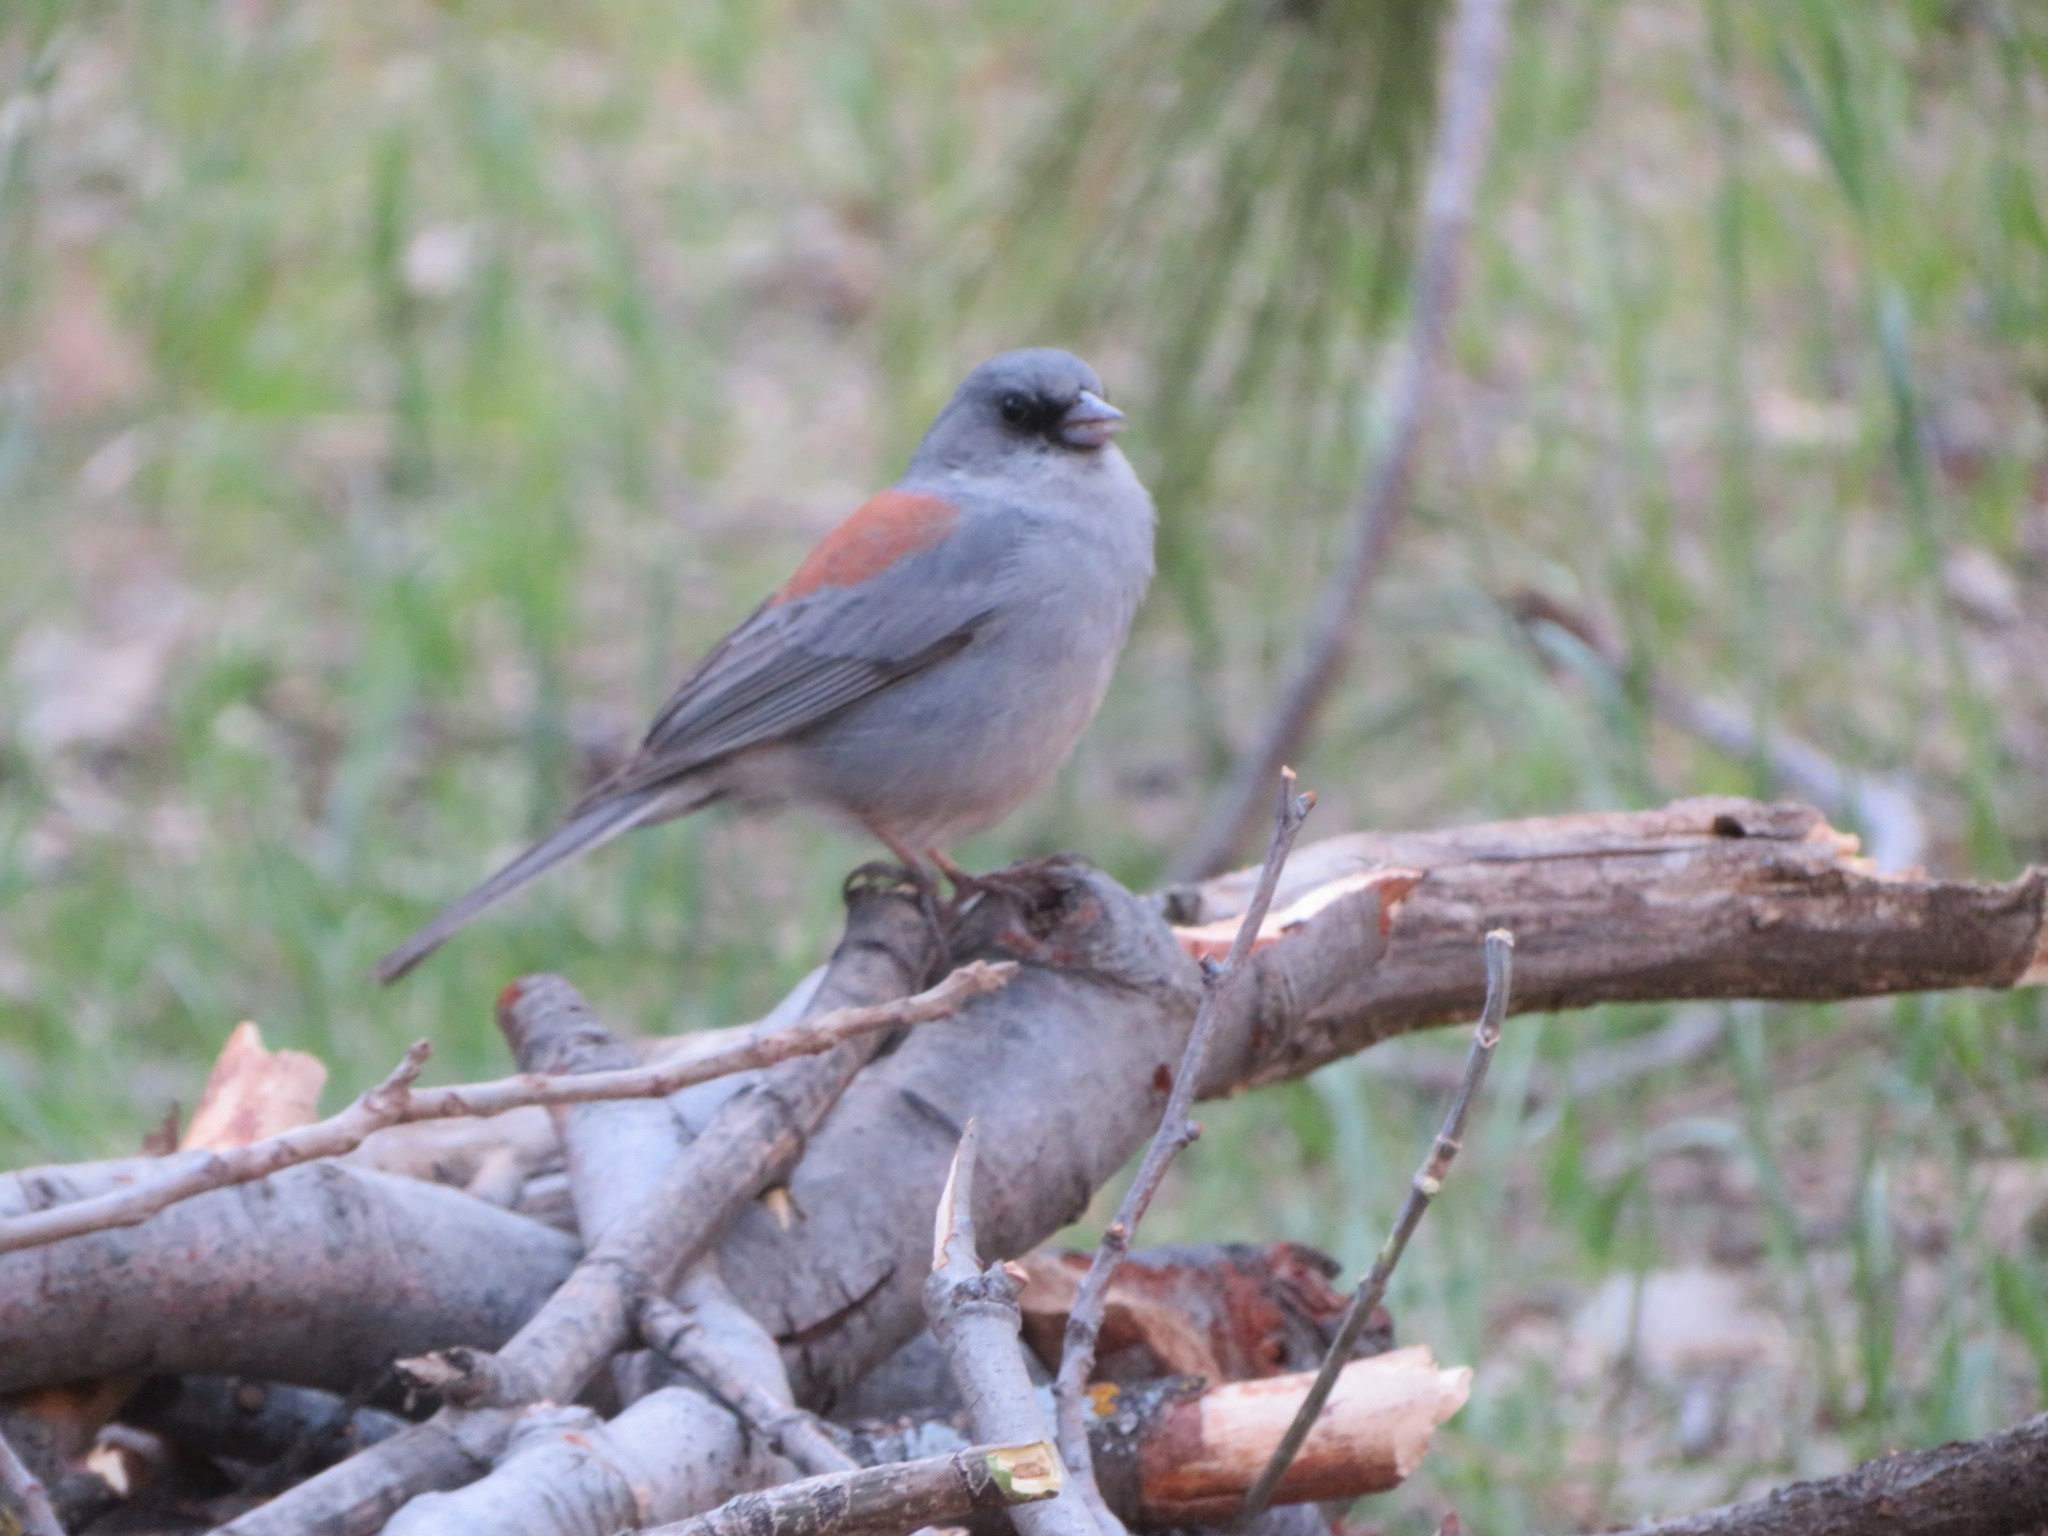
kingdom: Animalia
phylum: Chordata
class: Aves
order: Passeriformes
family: Passerellidae
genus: Junco
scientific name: Junco hyemalis
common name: Dark-eyed junco
